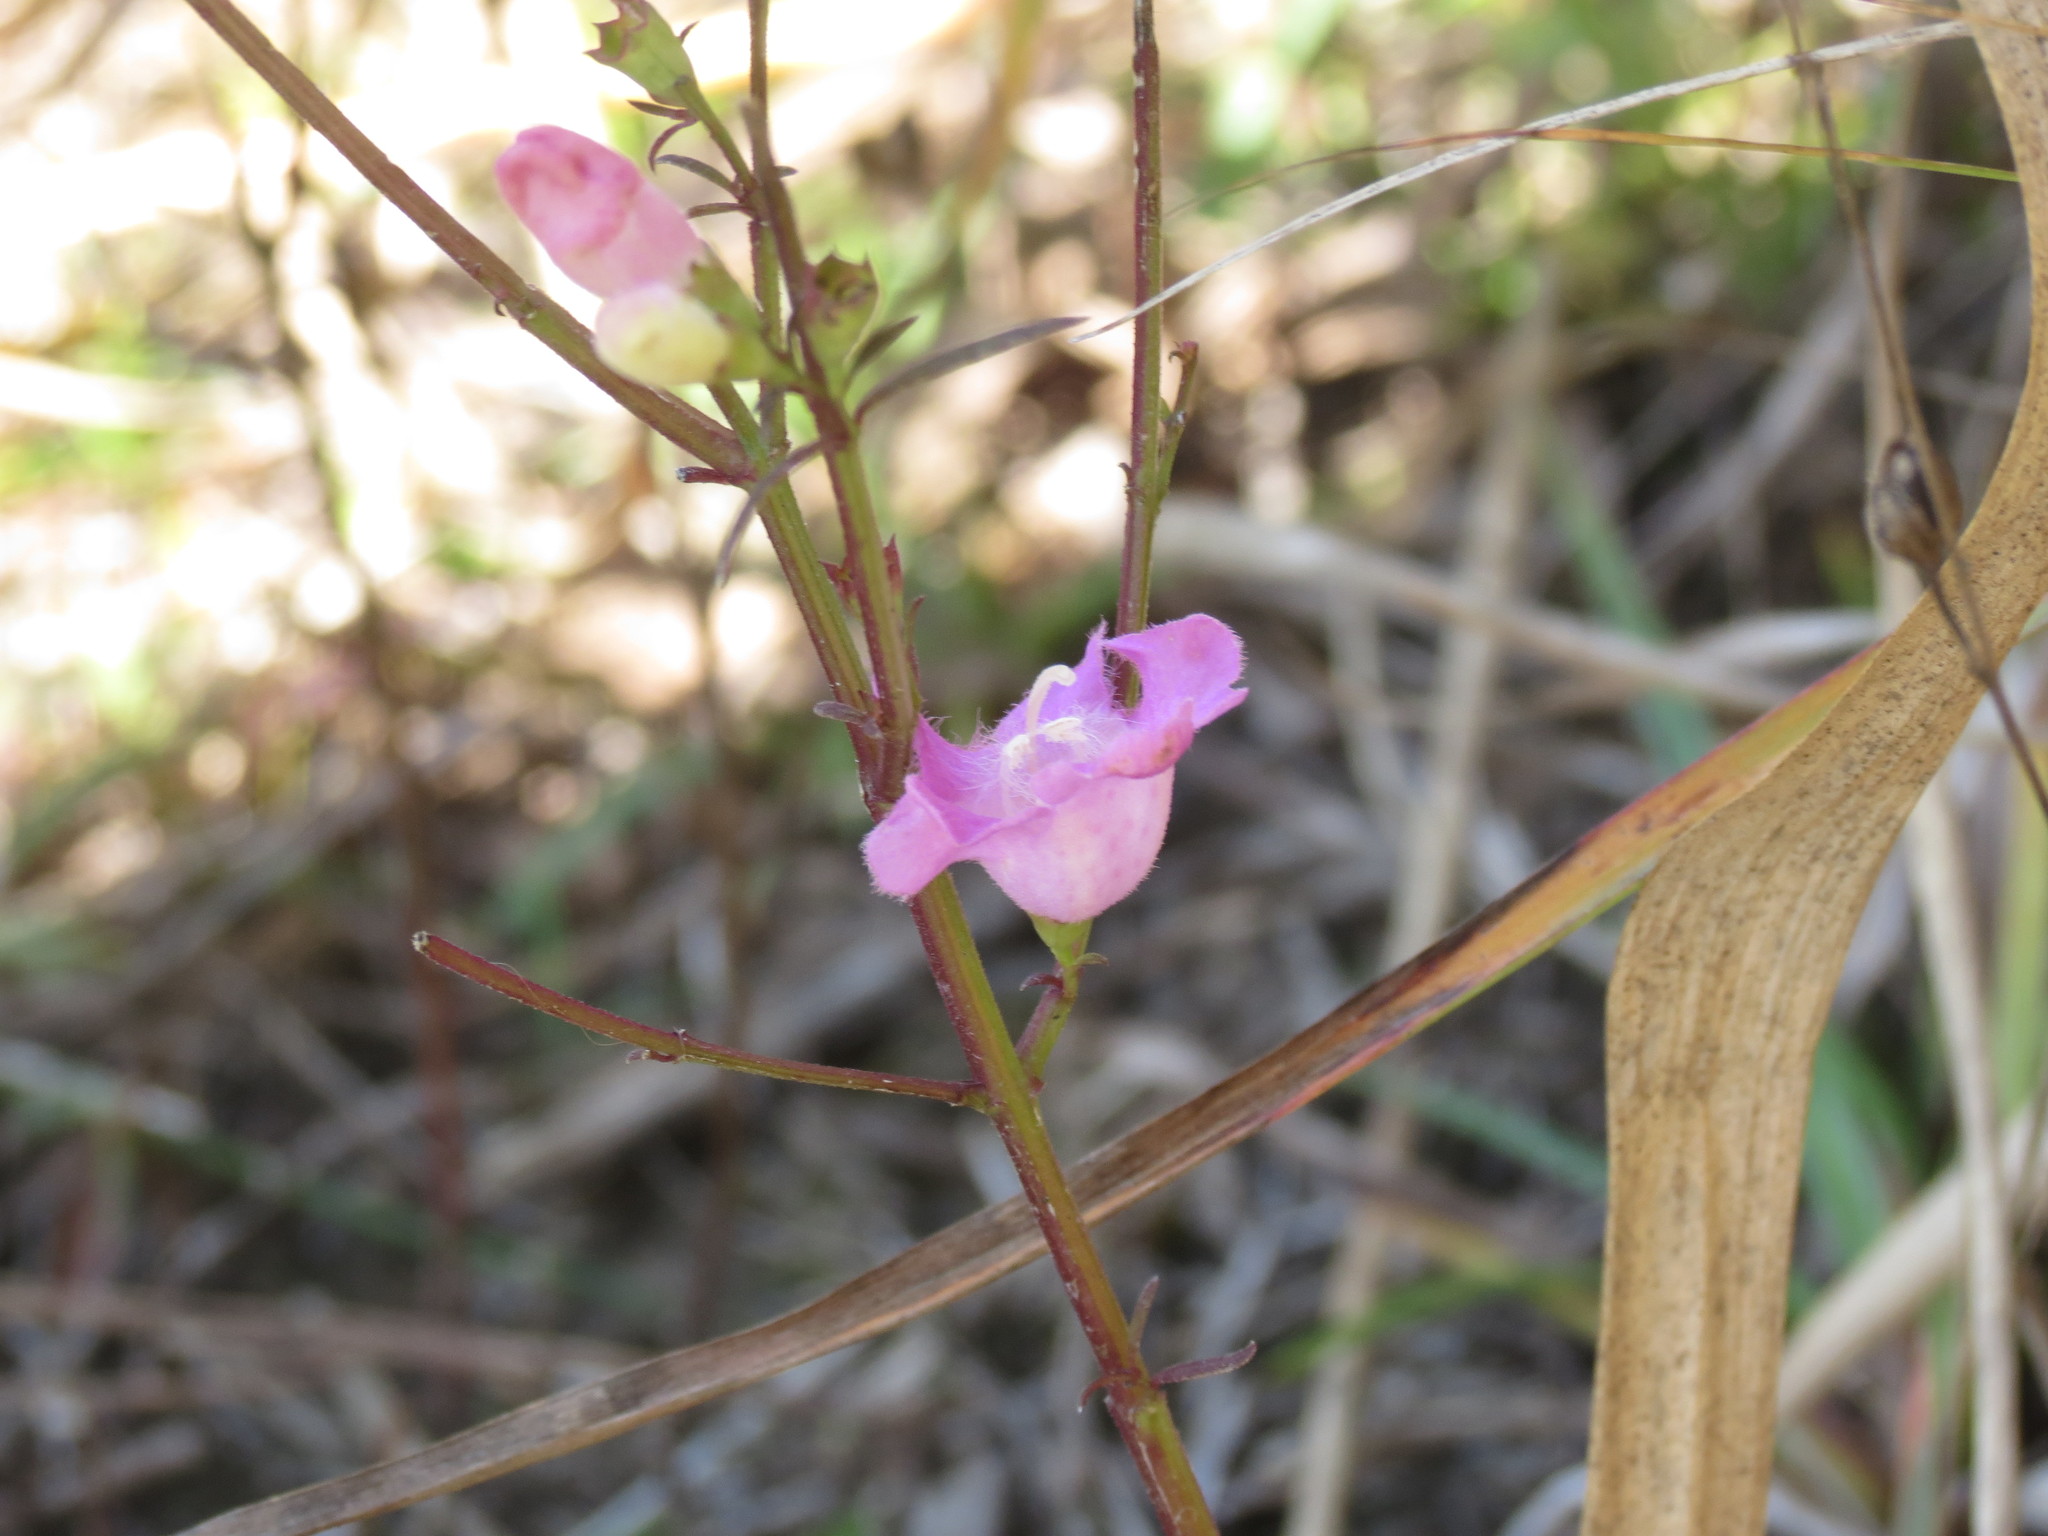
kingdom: Plantae
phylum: Tracheophyta
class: Magnoliopsida
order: Lamiales
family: Orobanchaceae
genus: Agalinis
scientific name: Agalinis purpurea
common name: Purple false foxglove
